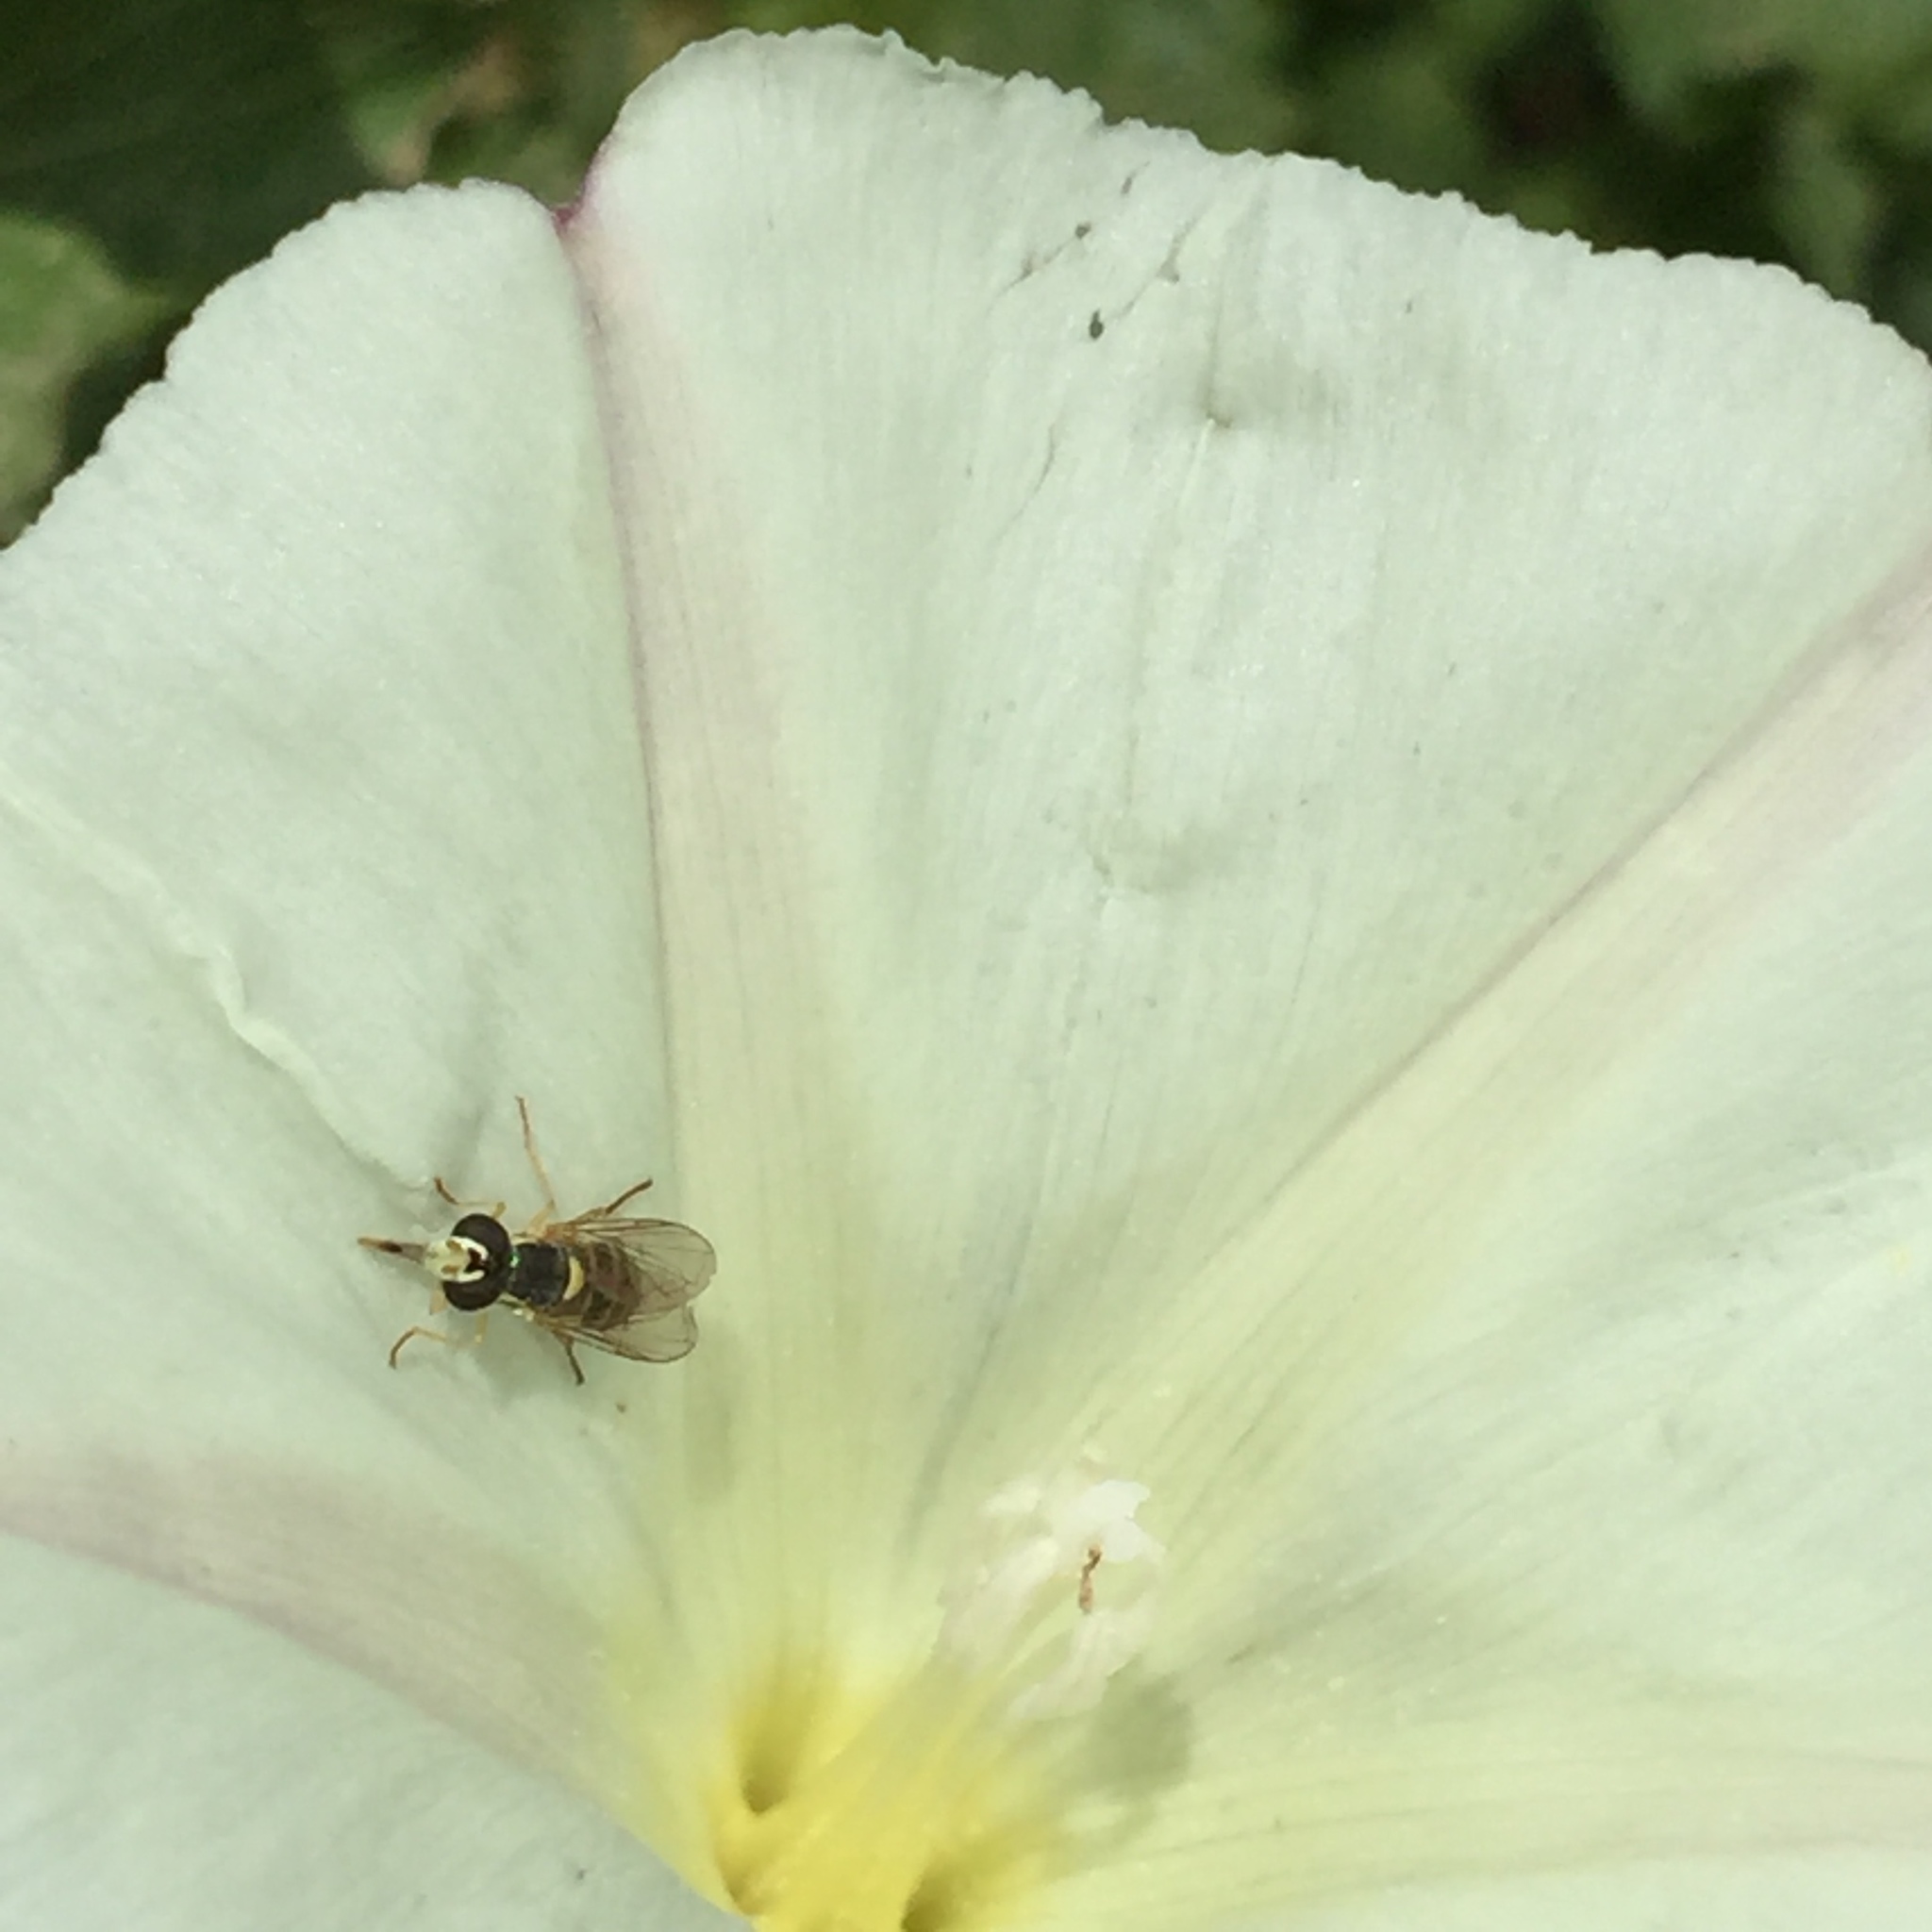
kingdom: Animalia
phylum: Arthropoda
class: Insecta
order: Diptera
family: Syrphidae
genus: Sphaerophoria
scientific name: Sphaerophoria sulphuripes
